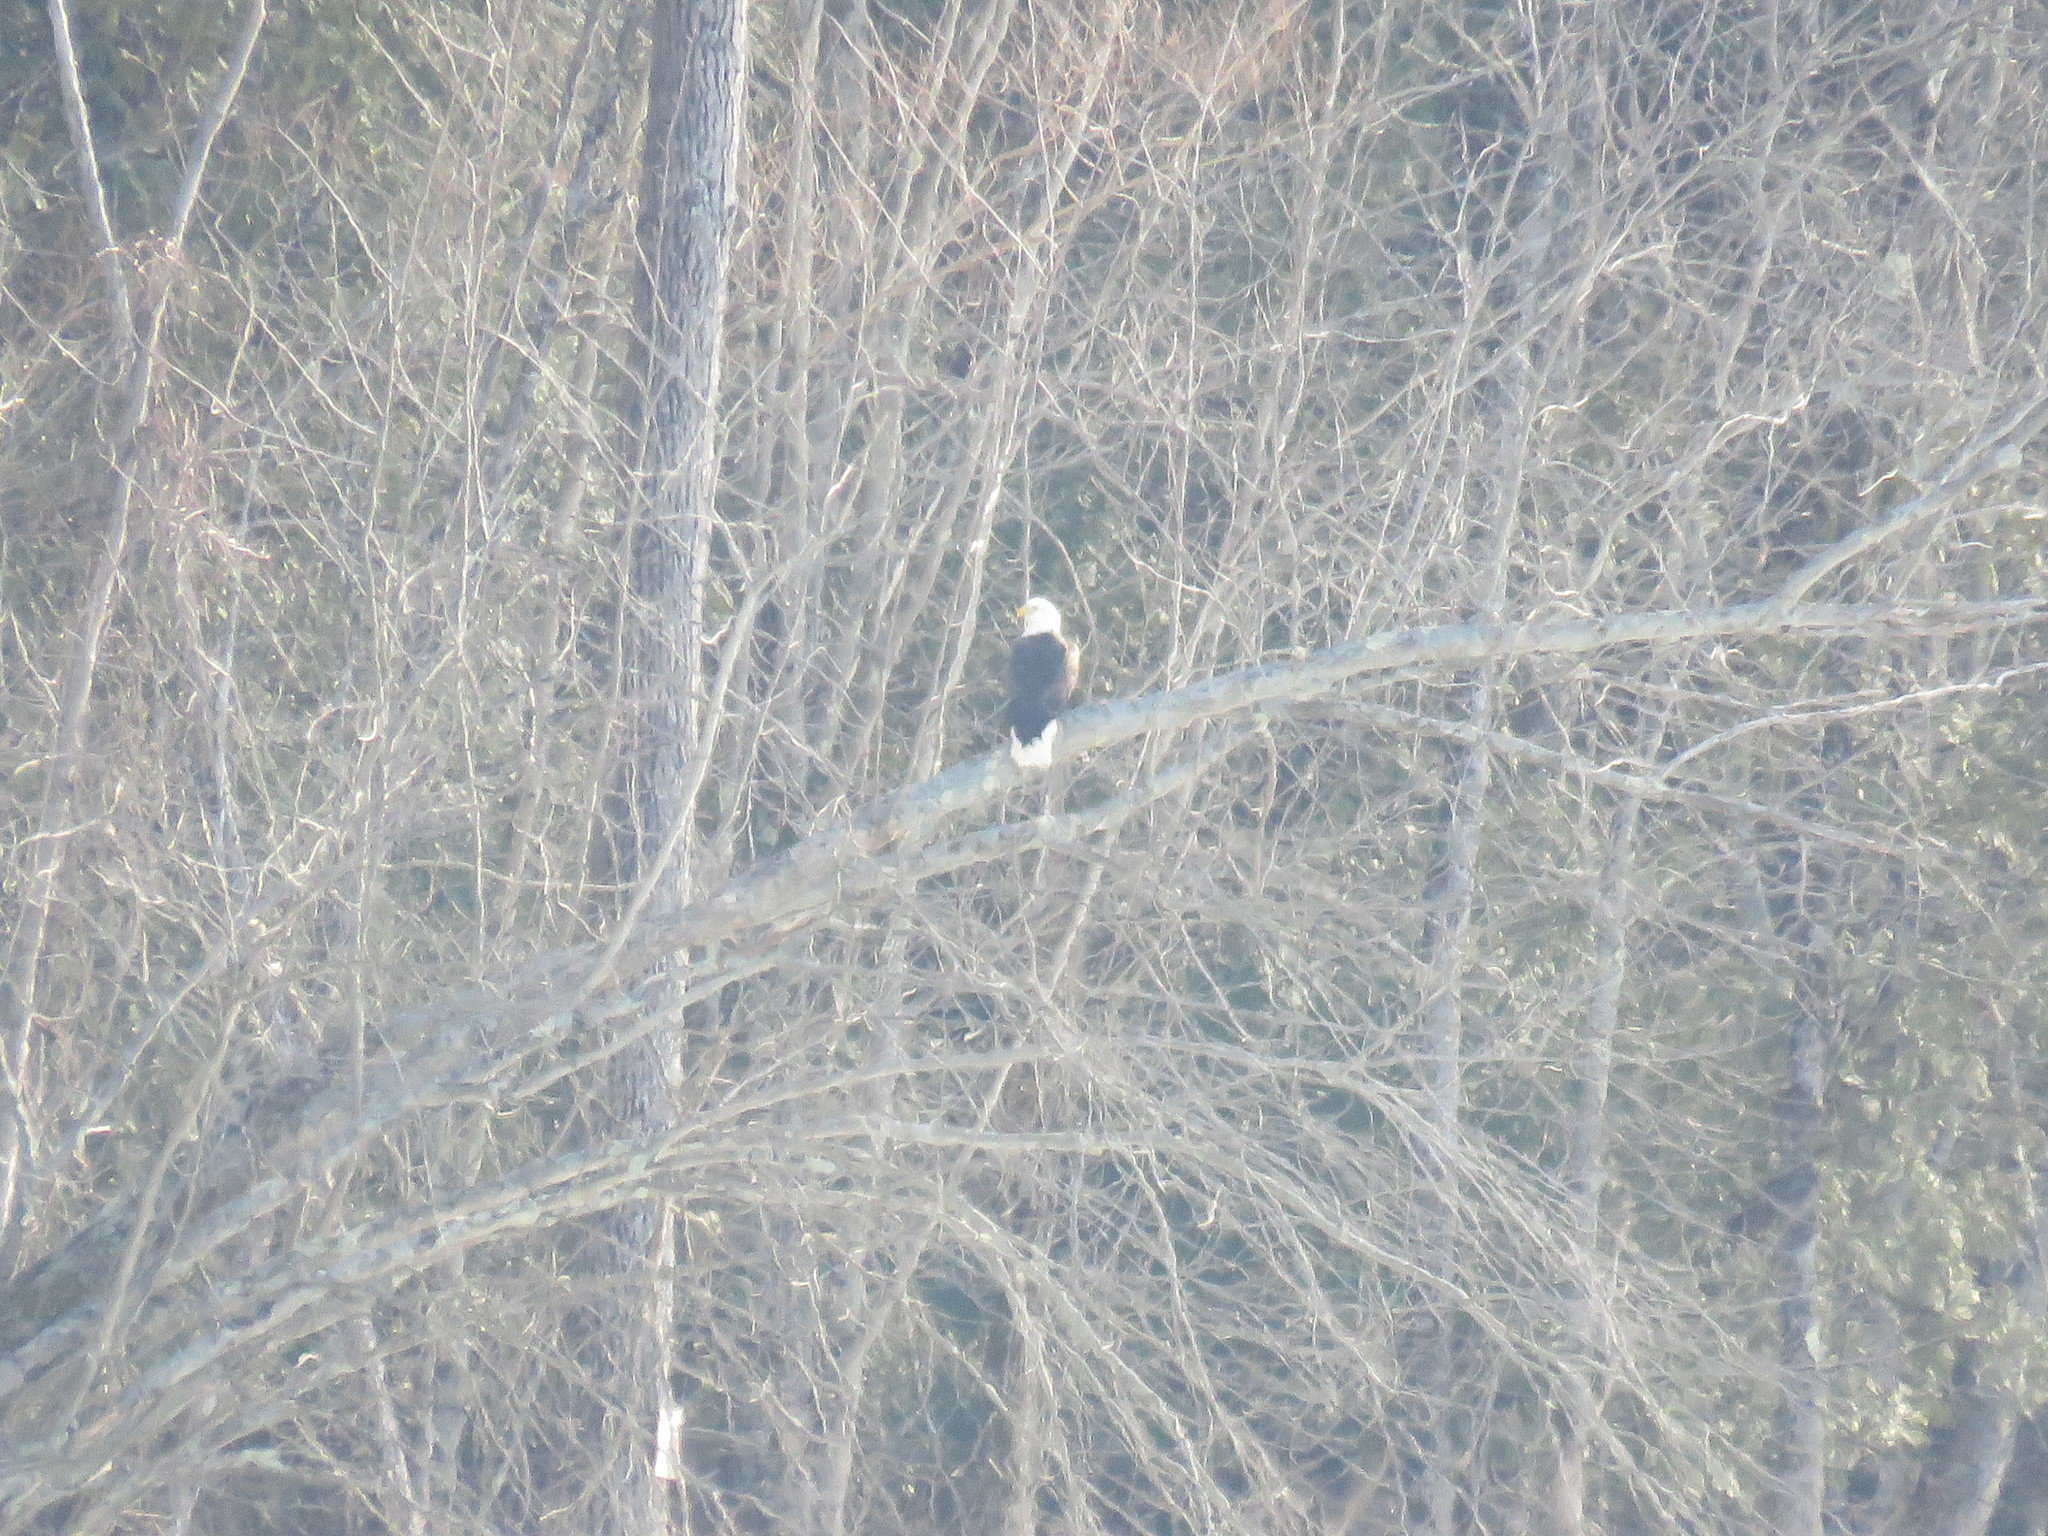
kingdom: Animalia
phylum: Chordata
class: Aves
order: Accipitriformes
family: Accipitridae
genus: Haliaeetus
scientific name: Haliaeetus leucocephalus
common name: Bald eagle
